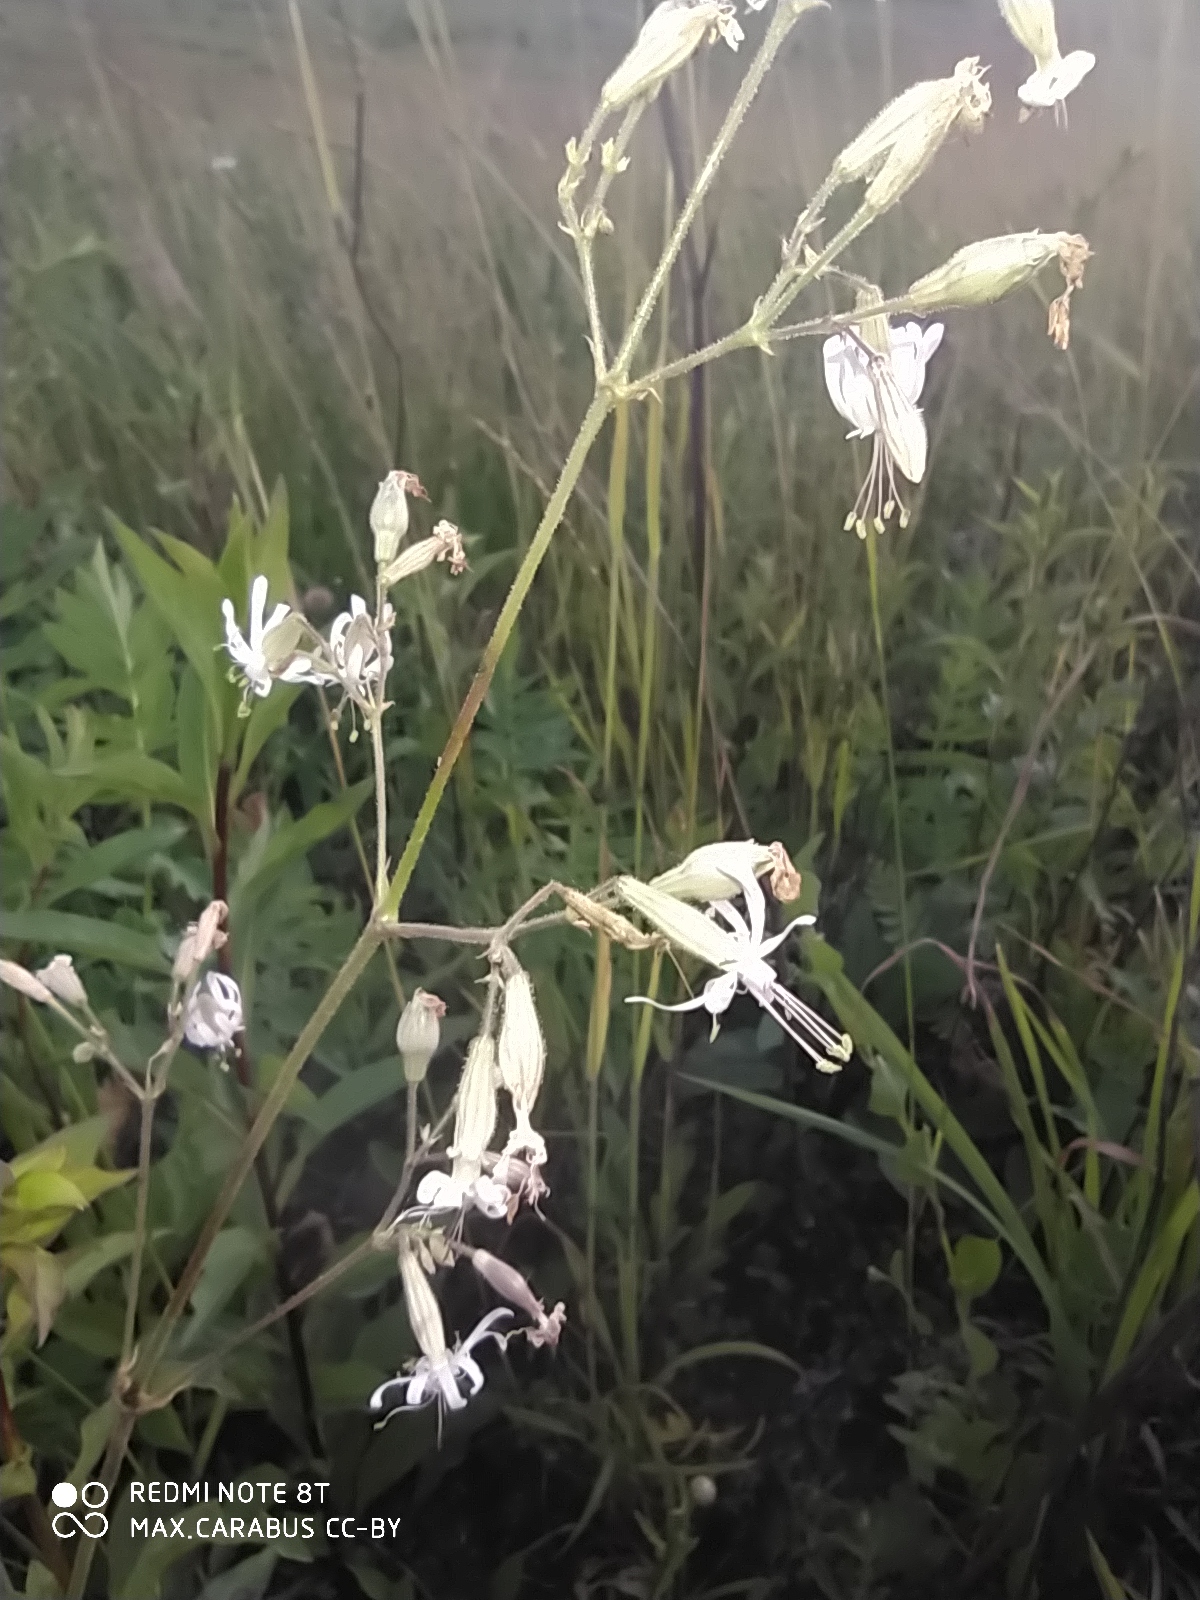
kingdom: Plantae
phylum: Tracheophyta
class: Magnoliopsida
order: Caryophyllales
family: Caryophyllaceae
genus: Silene
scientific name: Silene nutans
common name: Nottingham catchfly
